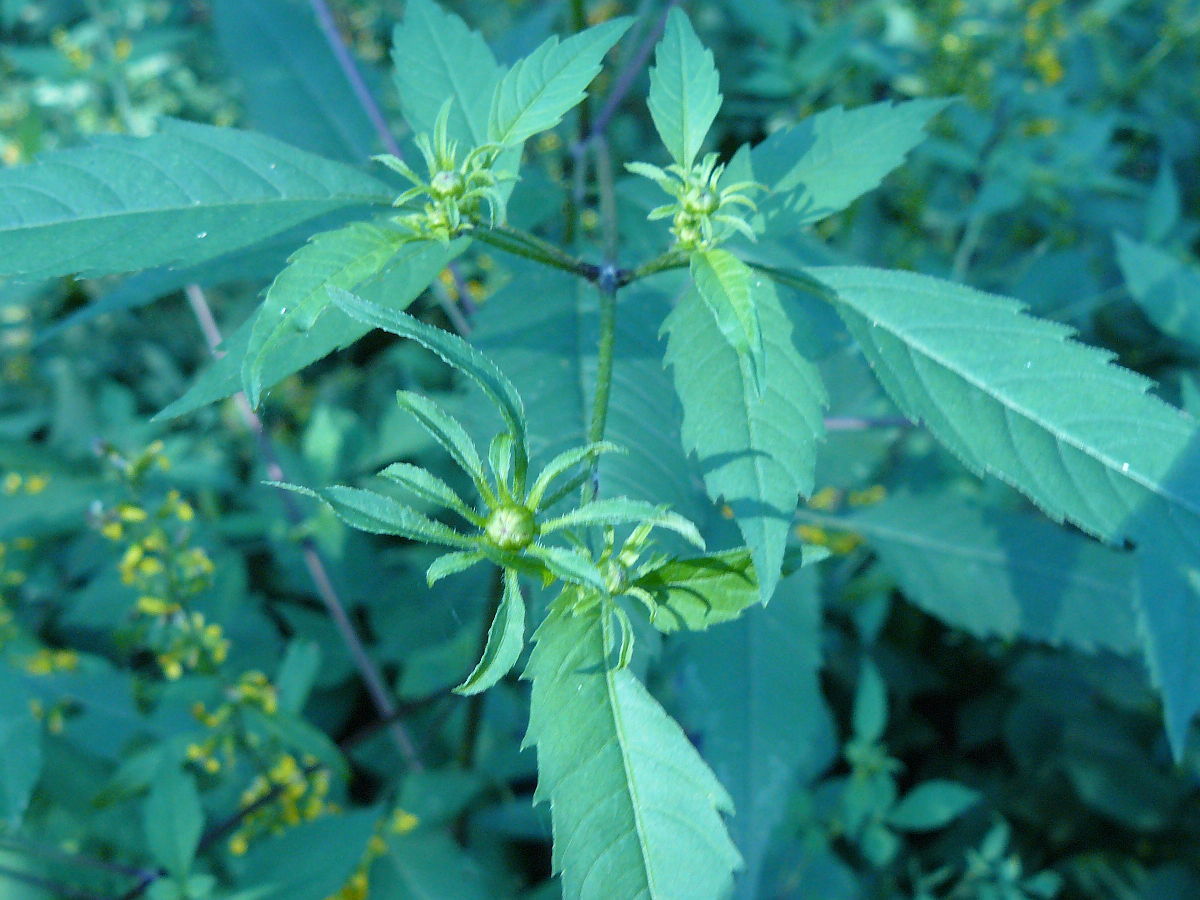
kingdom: Plantae
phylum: Tracheophyta
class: Magnoliopsida
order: Asterales
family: Asteraceae
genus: Bidens
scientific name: Bidens frondosa
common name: Beggarticks
